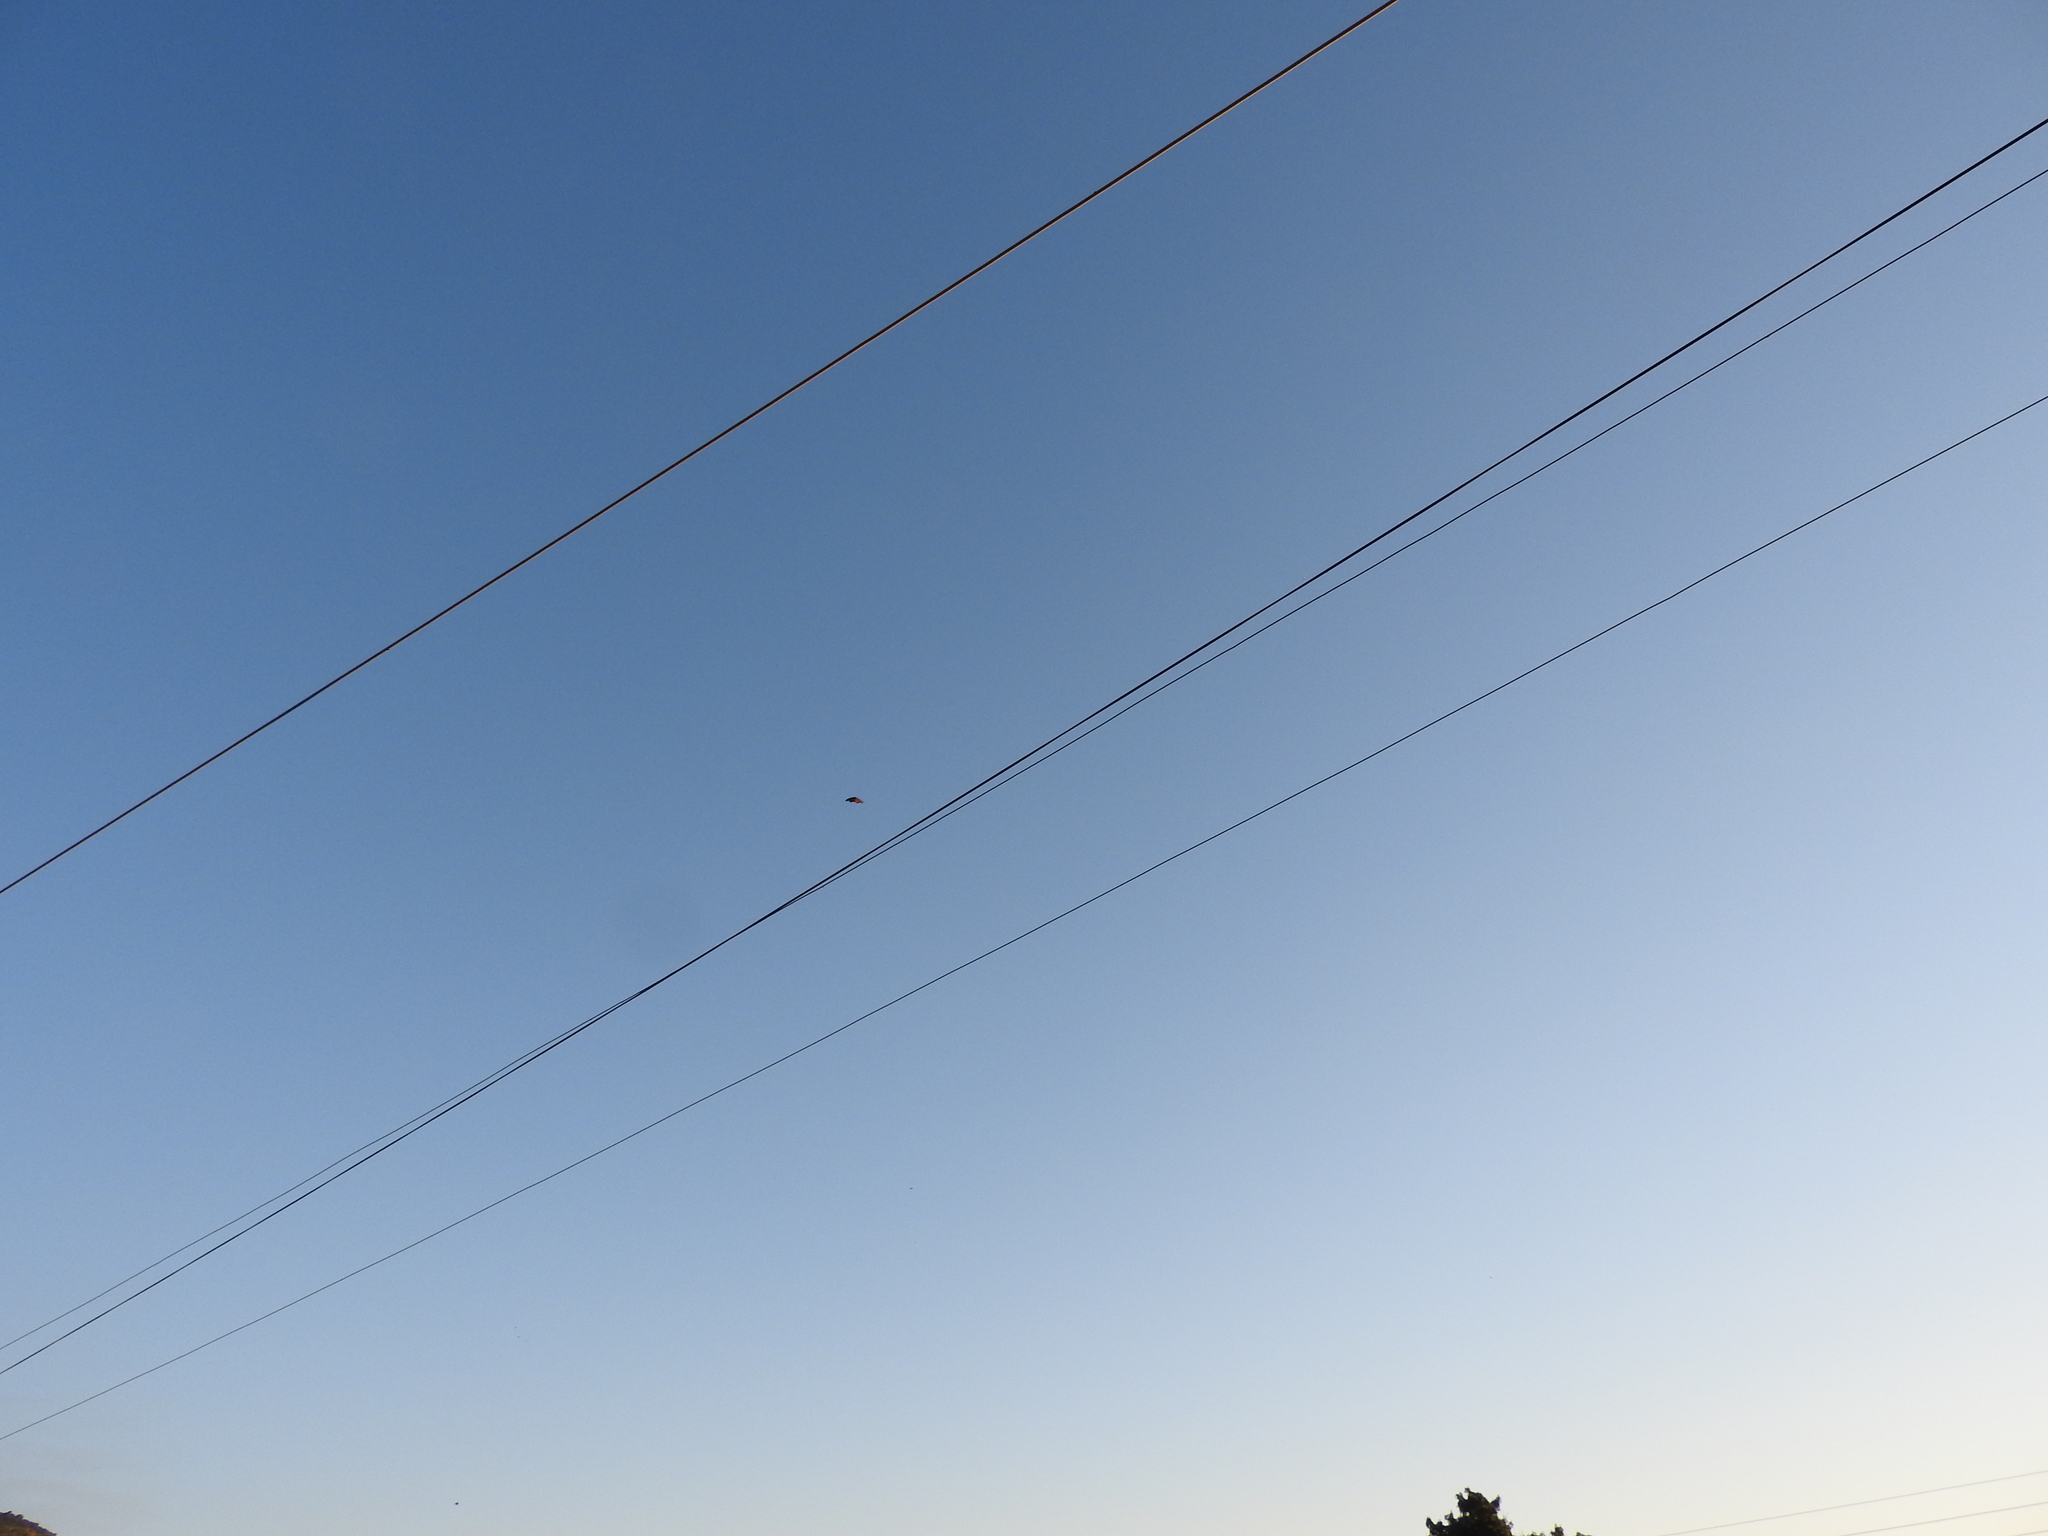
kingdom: Animalia
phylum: Arthropoda
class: Insecta
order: Lepidoptera
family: Nymphalidae
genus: Danaus
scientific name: Danaus plexippus
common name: Monarch
